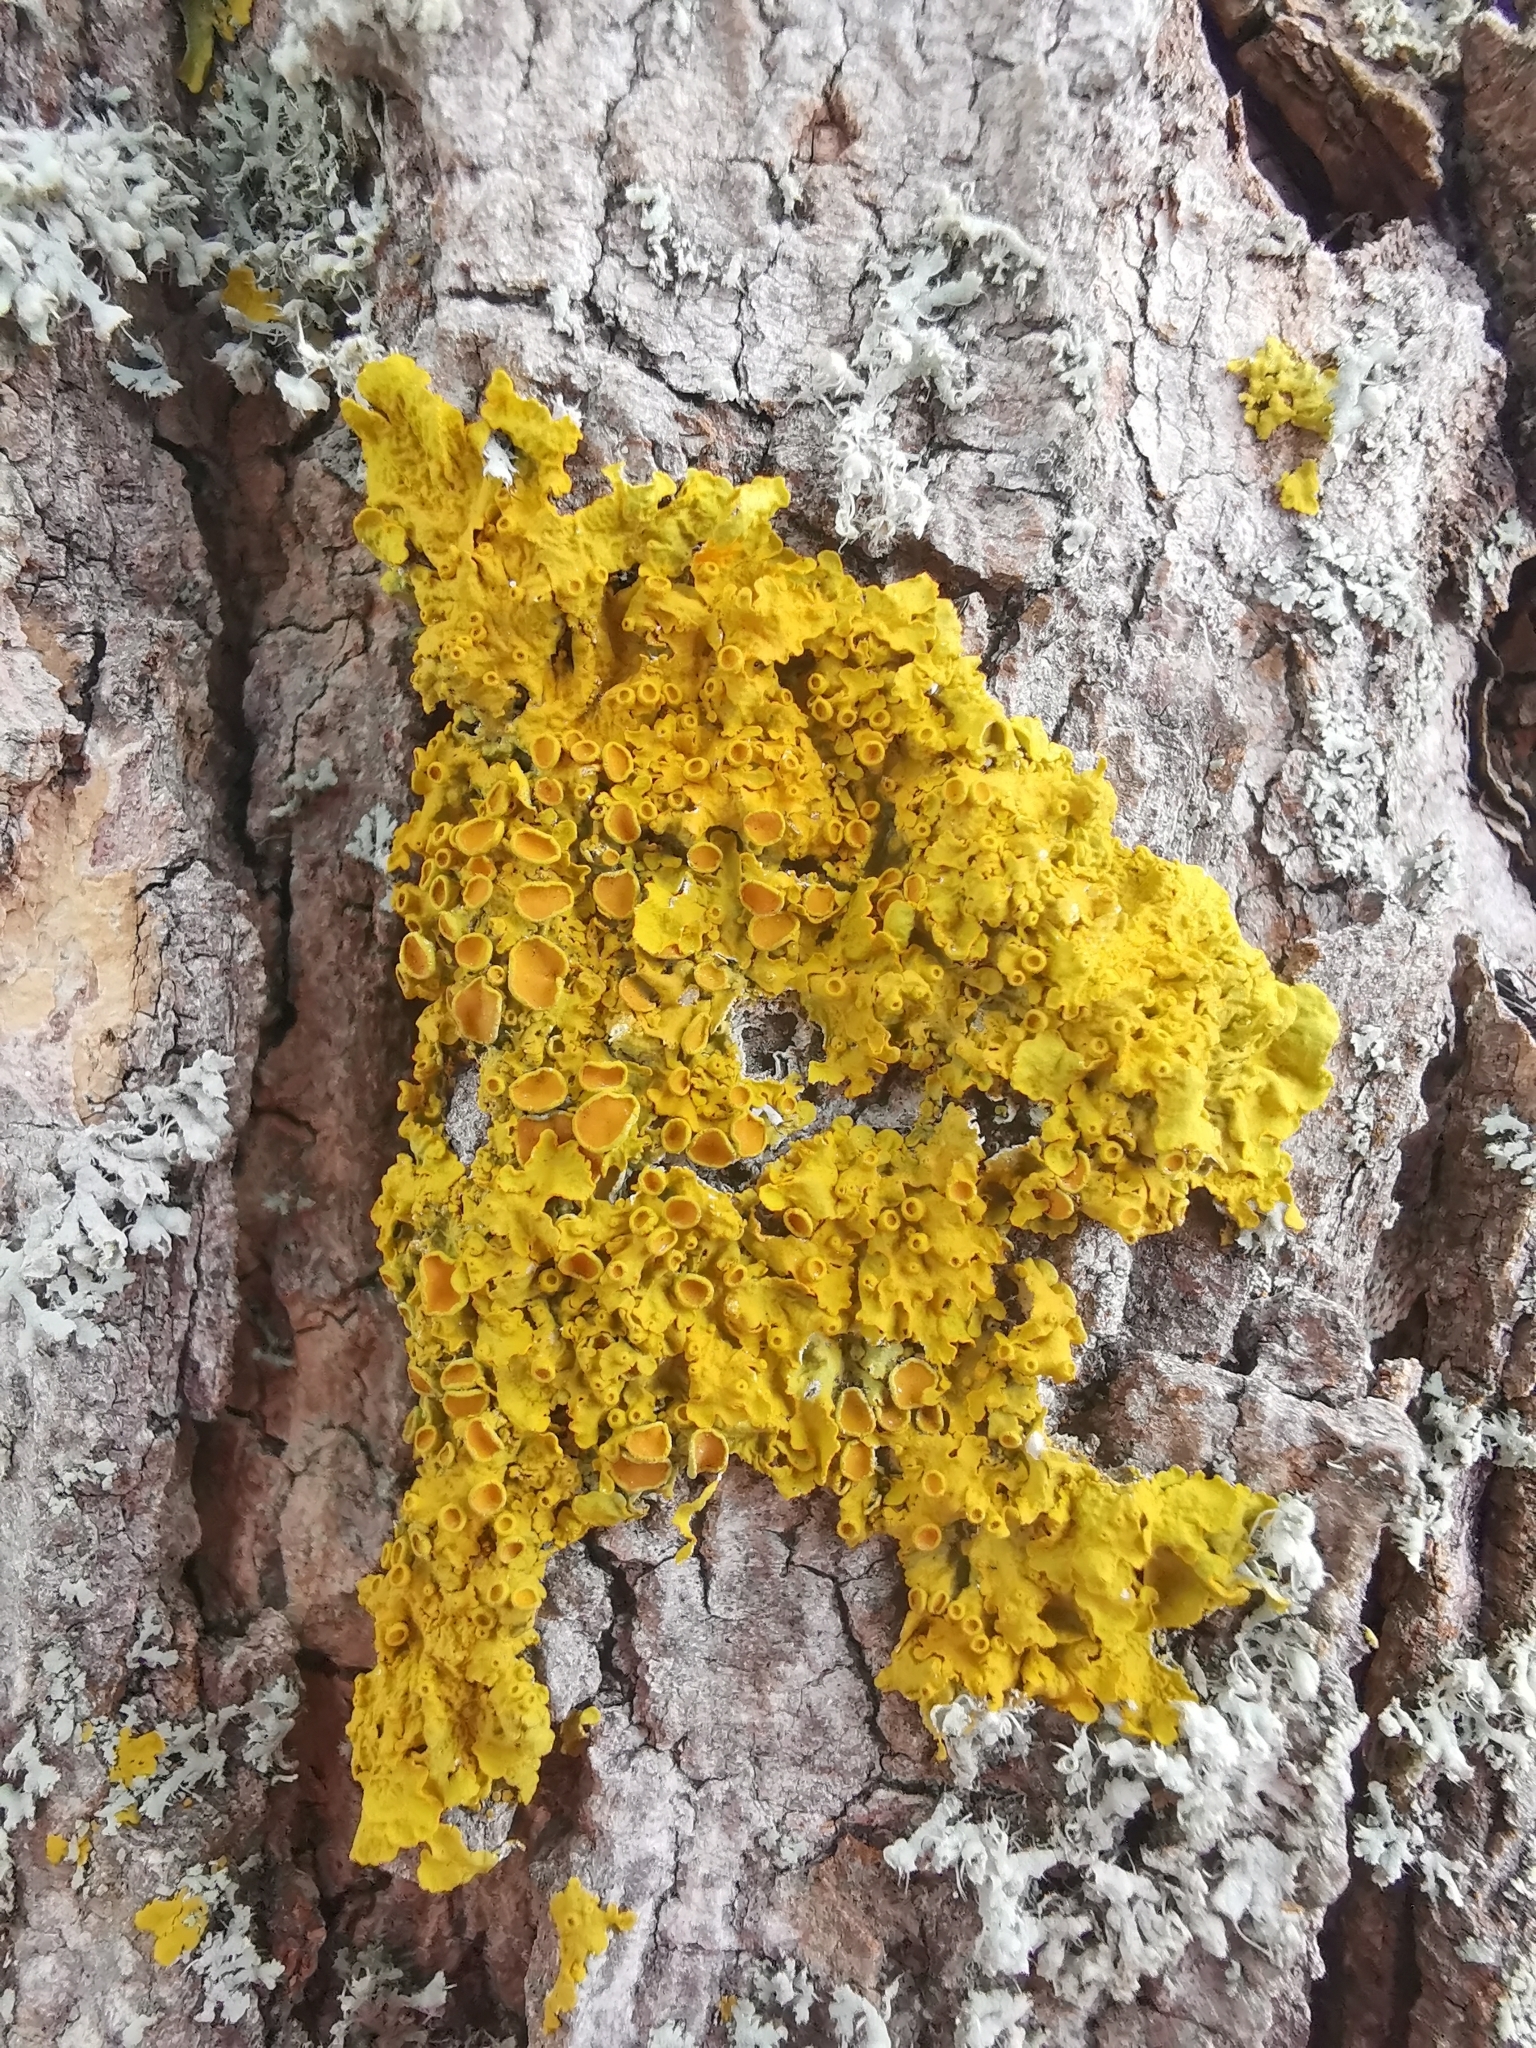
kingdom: Fungi
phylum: Ascomycota
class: Lecanoromycetes
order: Teloschistales
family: Teloschistaceae
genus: Xanthoria
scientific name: Xanthoria parietina
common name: Common orange lichen
